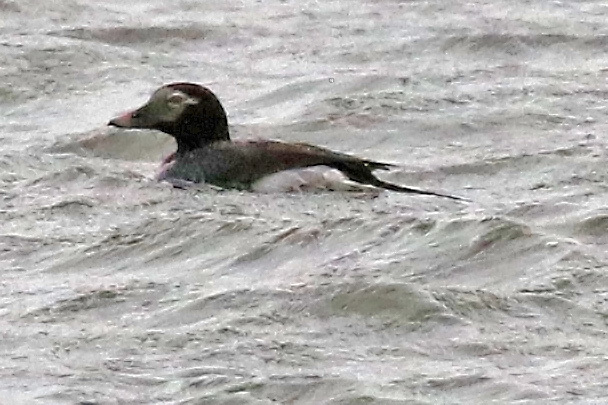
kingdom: Animalia
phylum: Chordata
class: Aves
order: Anseriformes
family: Anatidae
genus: Clangula
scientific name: Clangula hyemalis
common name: Long-tailed duck
